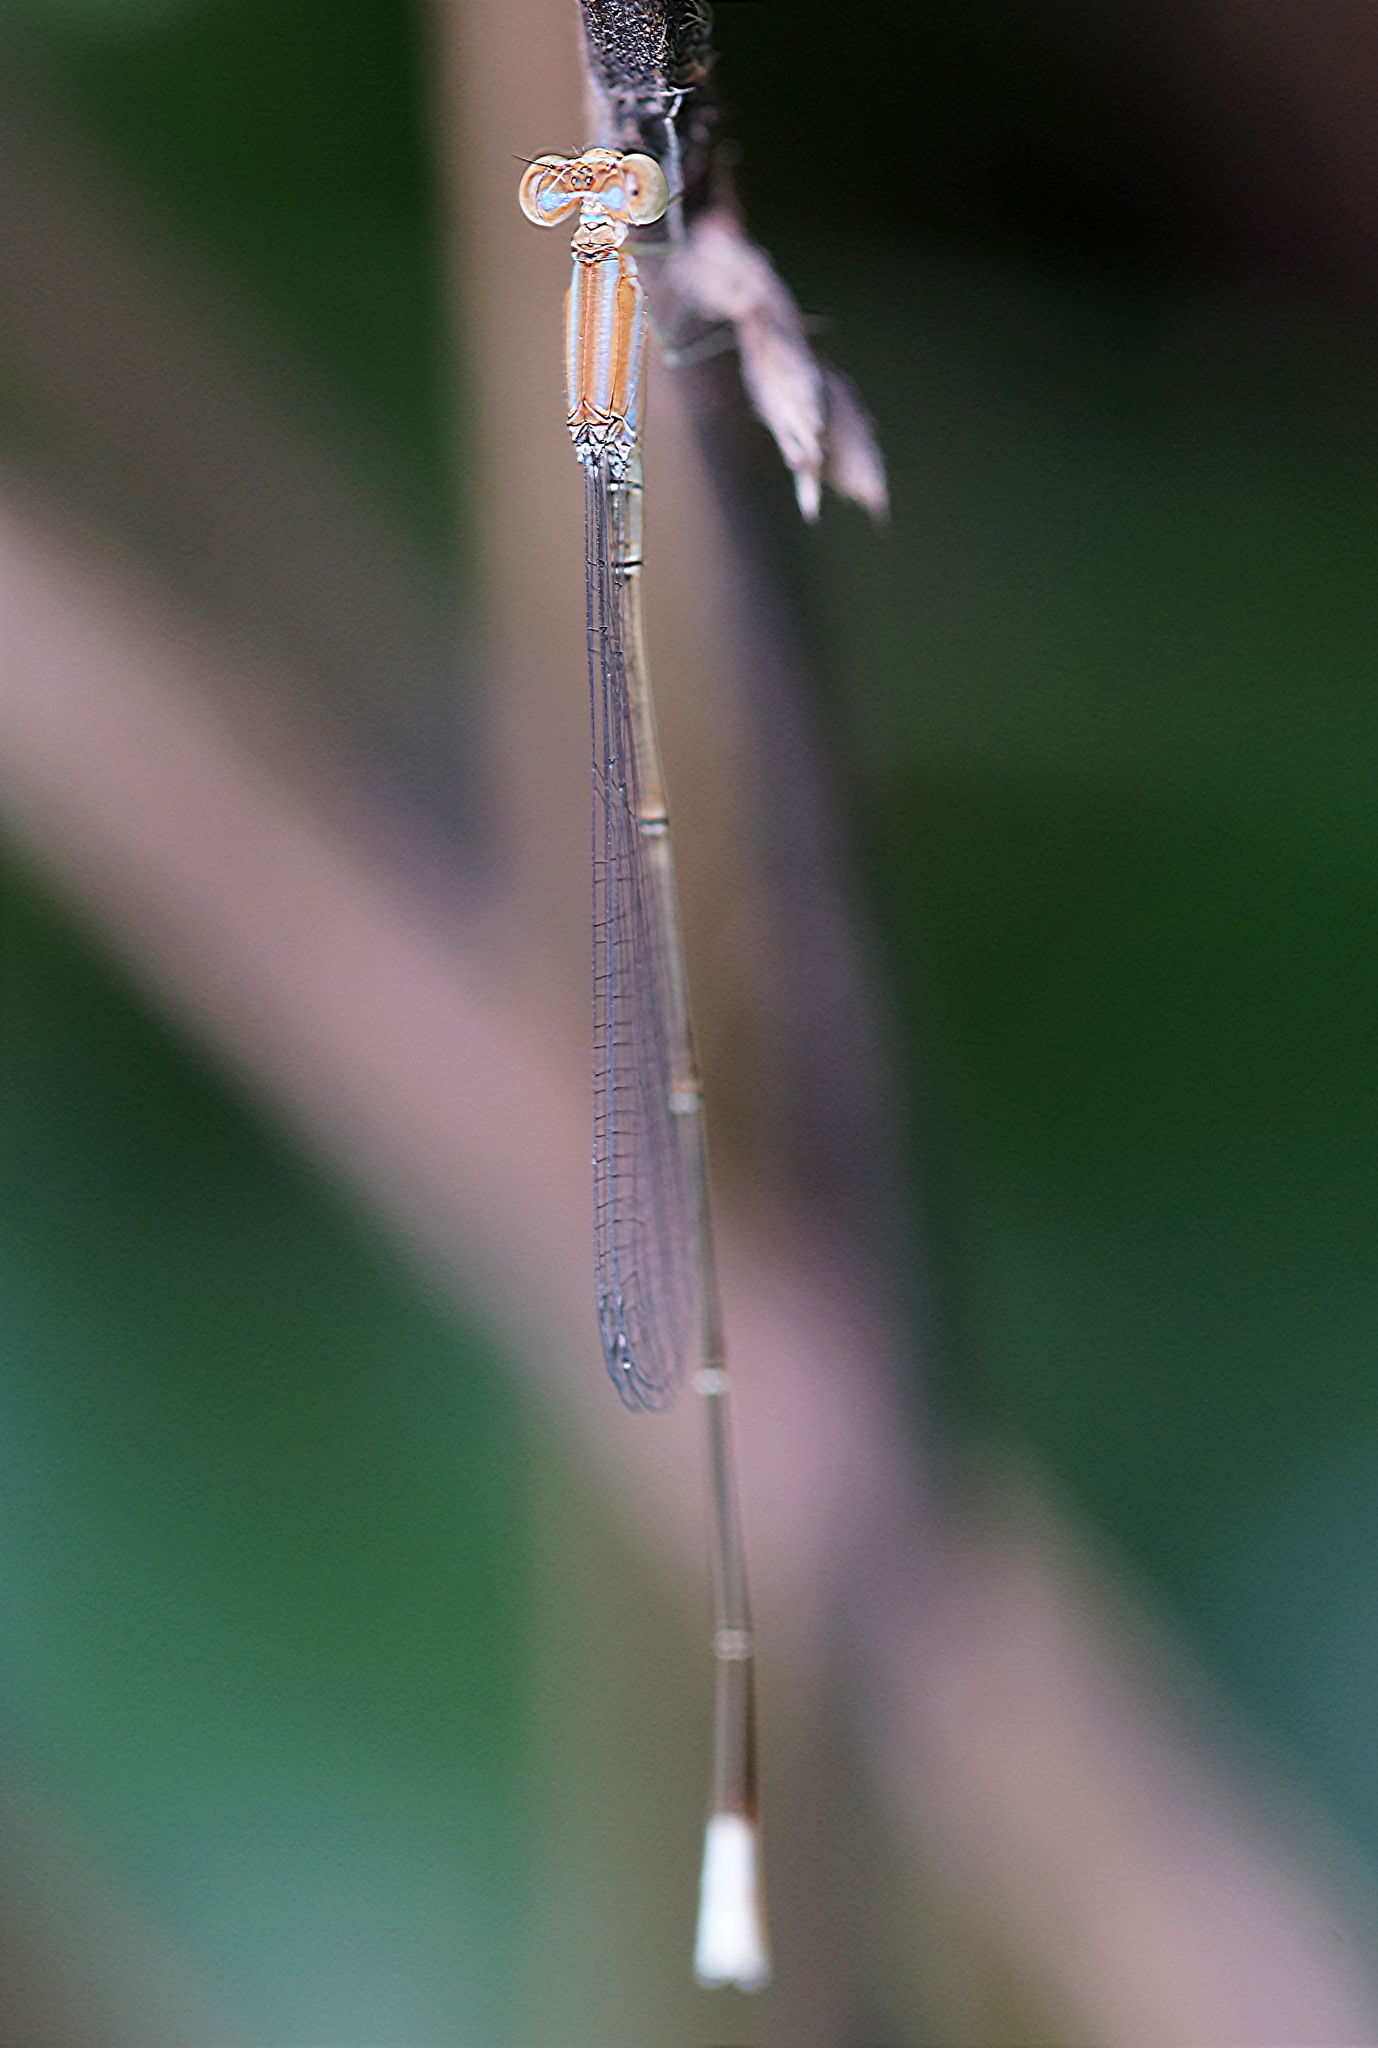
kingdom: Animalia
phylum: Arthropoda
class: Insecta
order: Odonata
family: Coenagrionidae
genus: Aciagrion
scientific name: Aciagrion pallidum
